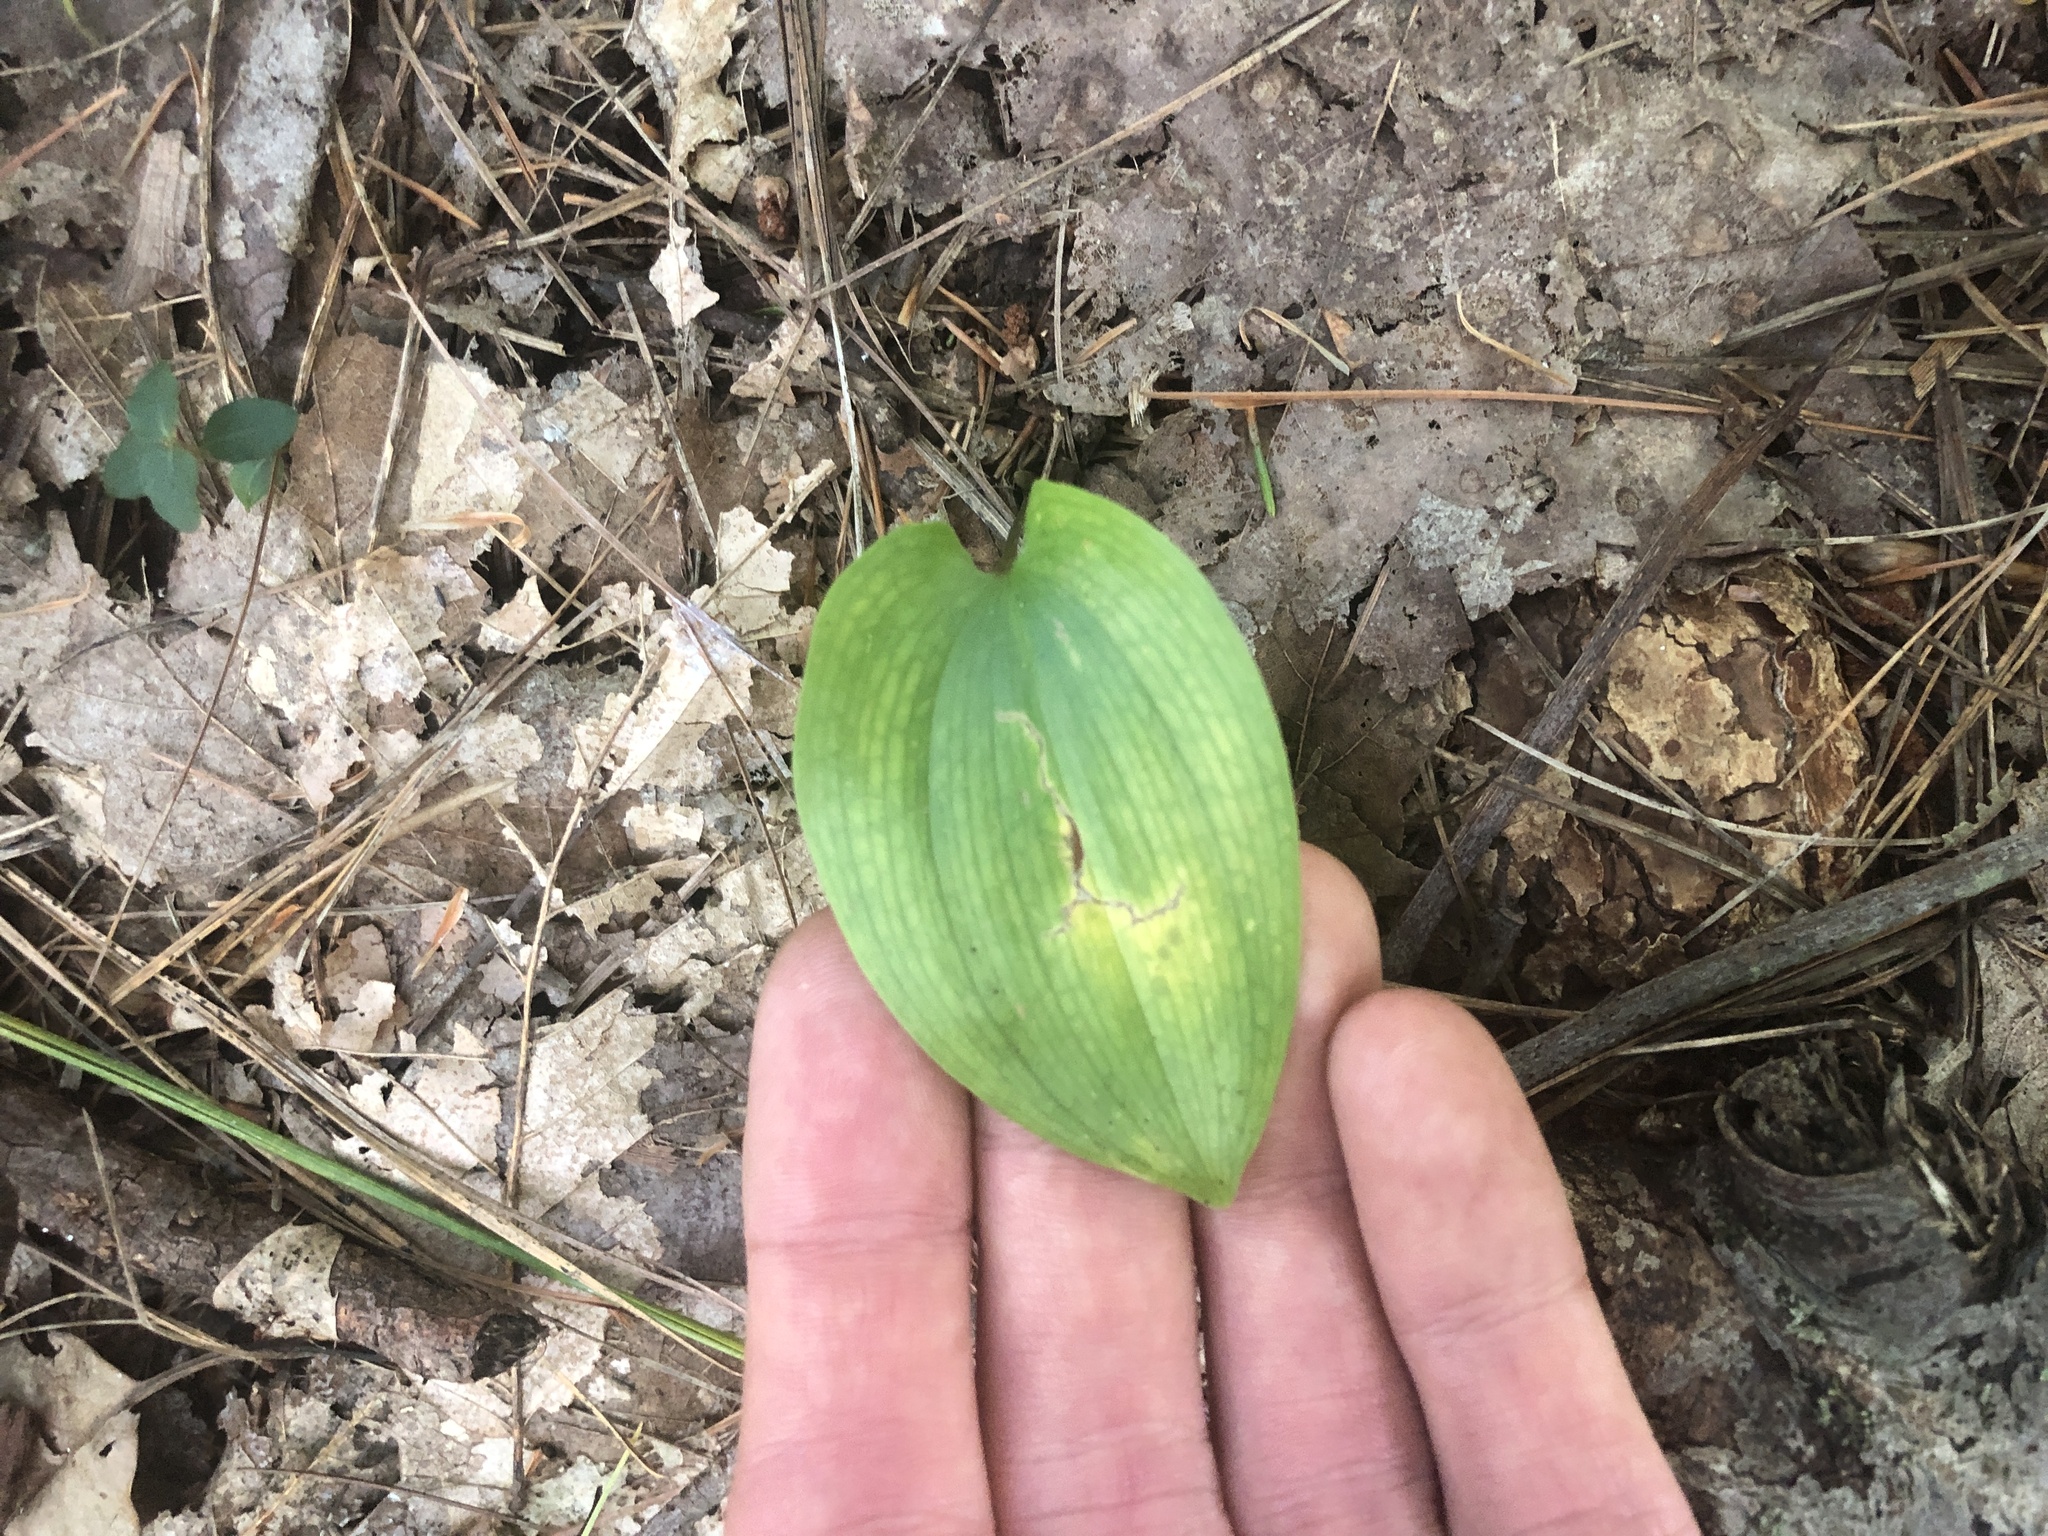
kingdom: Plantae
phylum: Tracheophyta
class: Liliopsida
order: Asparagales
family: Asparagaceae
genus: Maianthemum
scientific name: Maianthemum canadense
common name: False lily-of-the-valley
